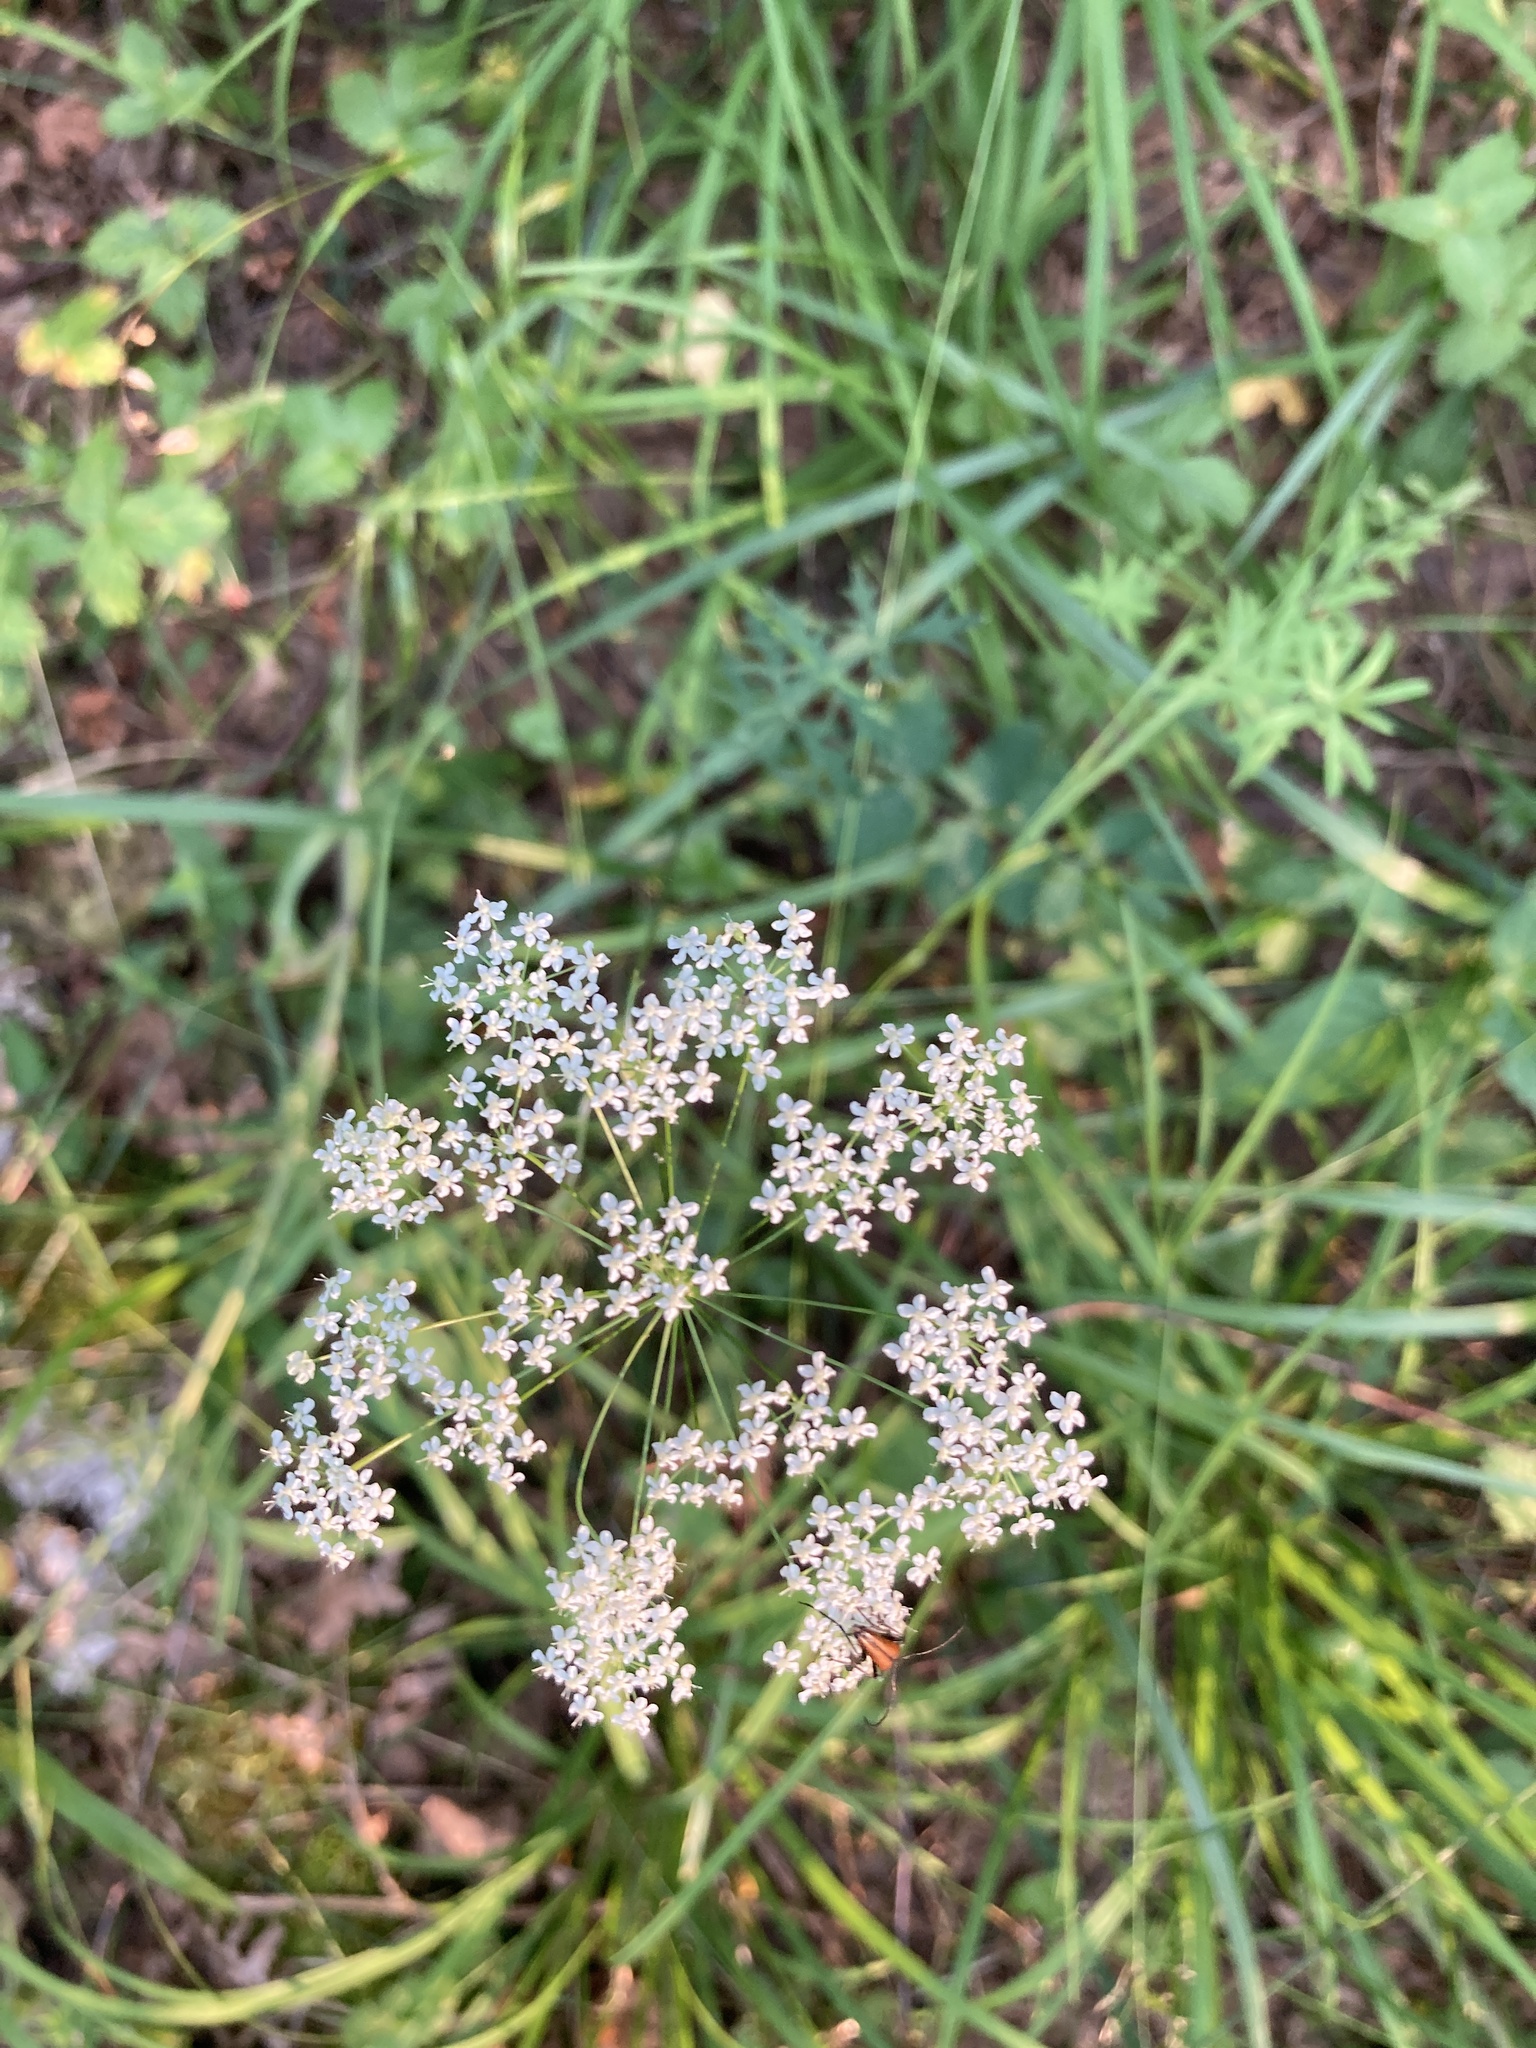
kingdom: Plantae
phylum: Tracheophyta
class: Magnoliopsida
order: Apiales
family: Apiaceae
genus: Pimpinella
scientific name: Pimpinella saxifraga
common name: Burnet-saxifrage
